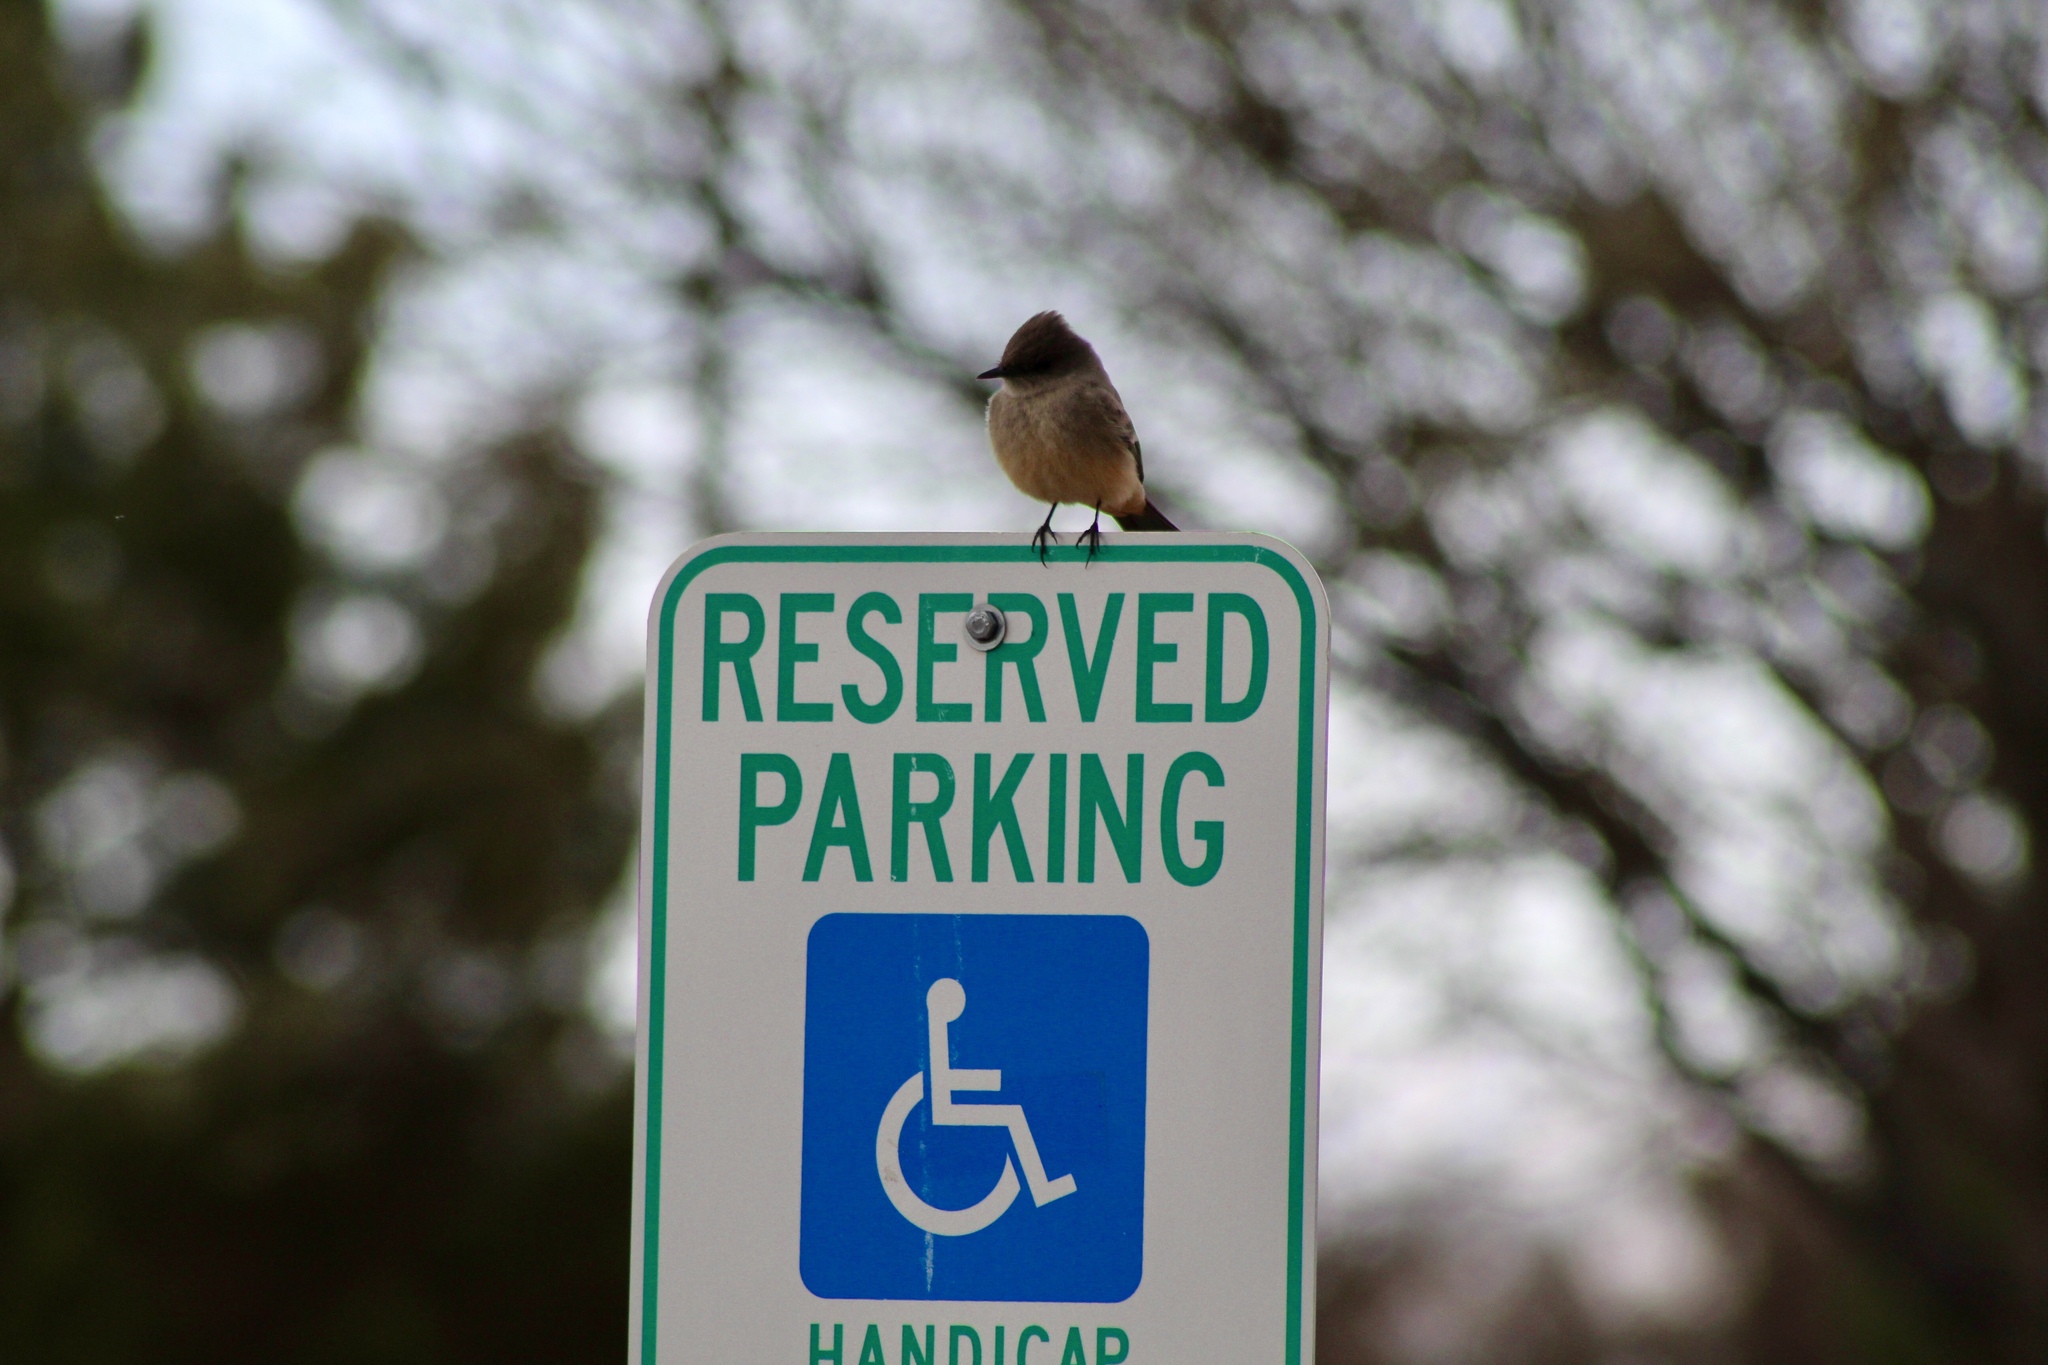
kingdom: Animalia
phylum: Chordata
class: Aves
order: Passeriformes
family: Tyrannidae
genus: Sayornis
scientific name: Sayornis saya
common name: Say's phoebe
